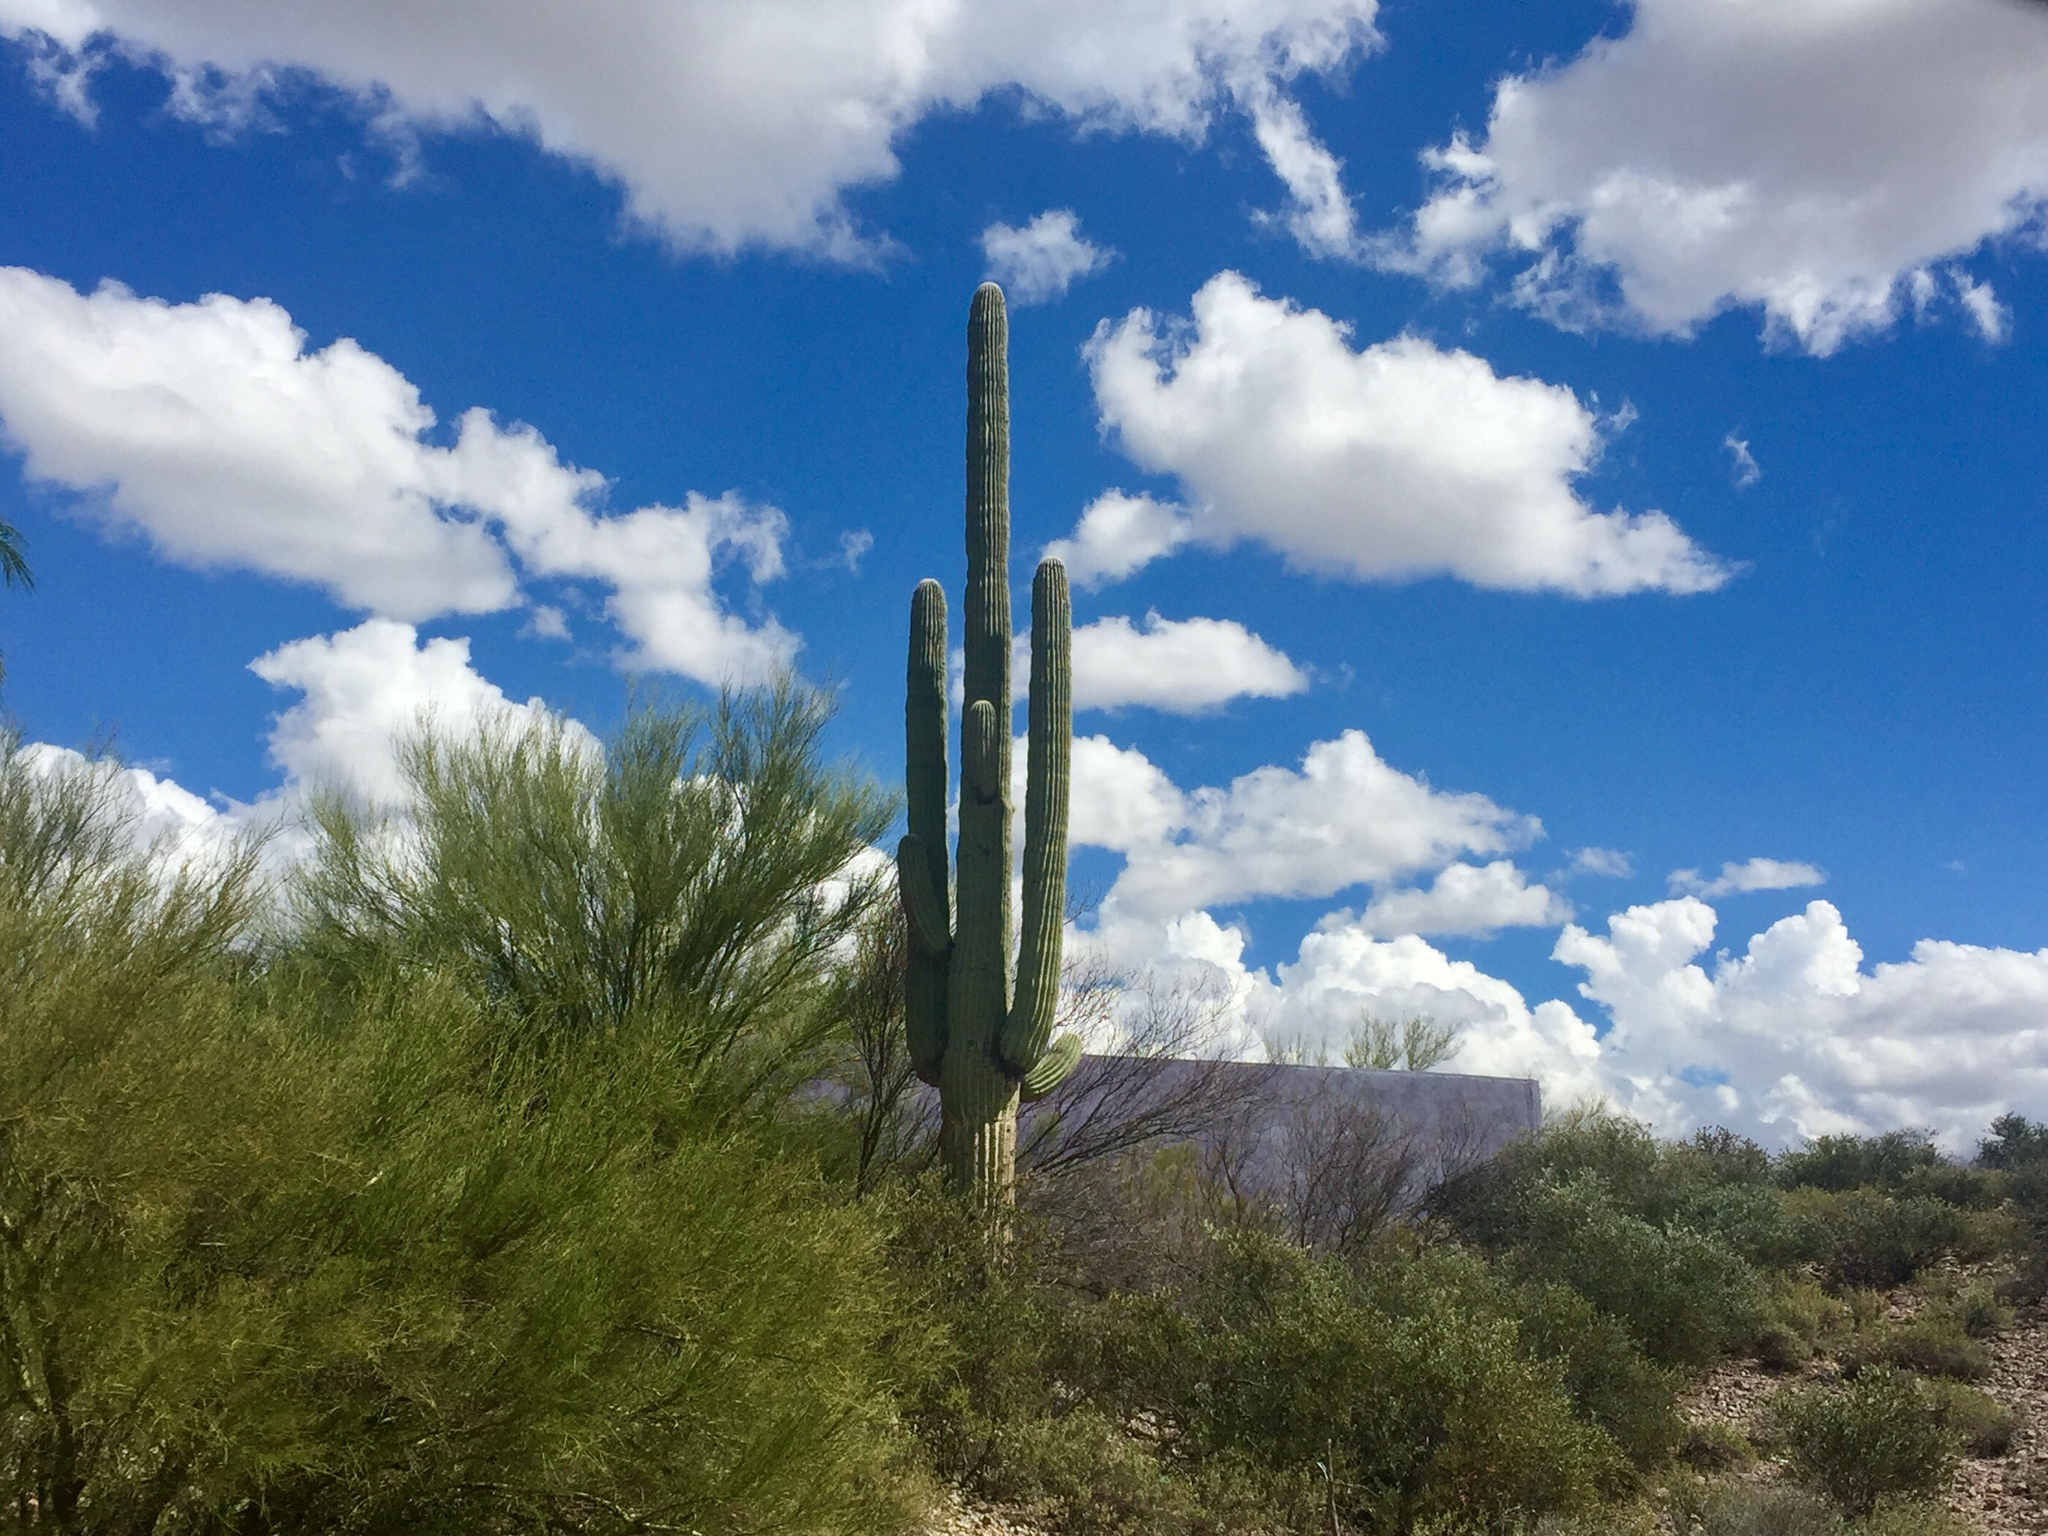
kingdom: Plantae
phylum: Tracheophyta
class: Magnoliopsida
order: Caryophyllales
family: Cactaceae
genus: Carnegiea
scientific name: Carnegiea gigantea
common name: Saguaro
